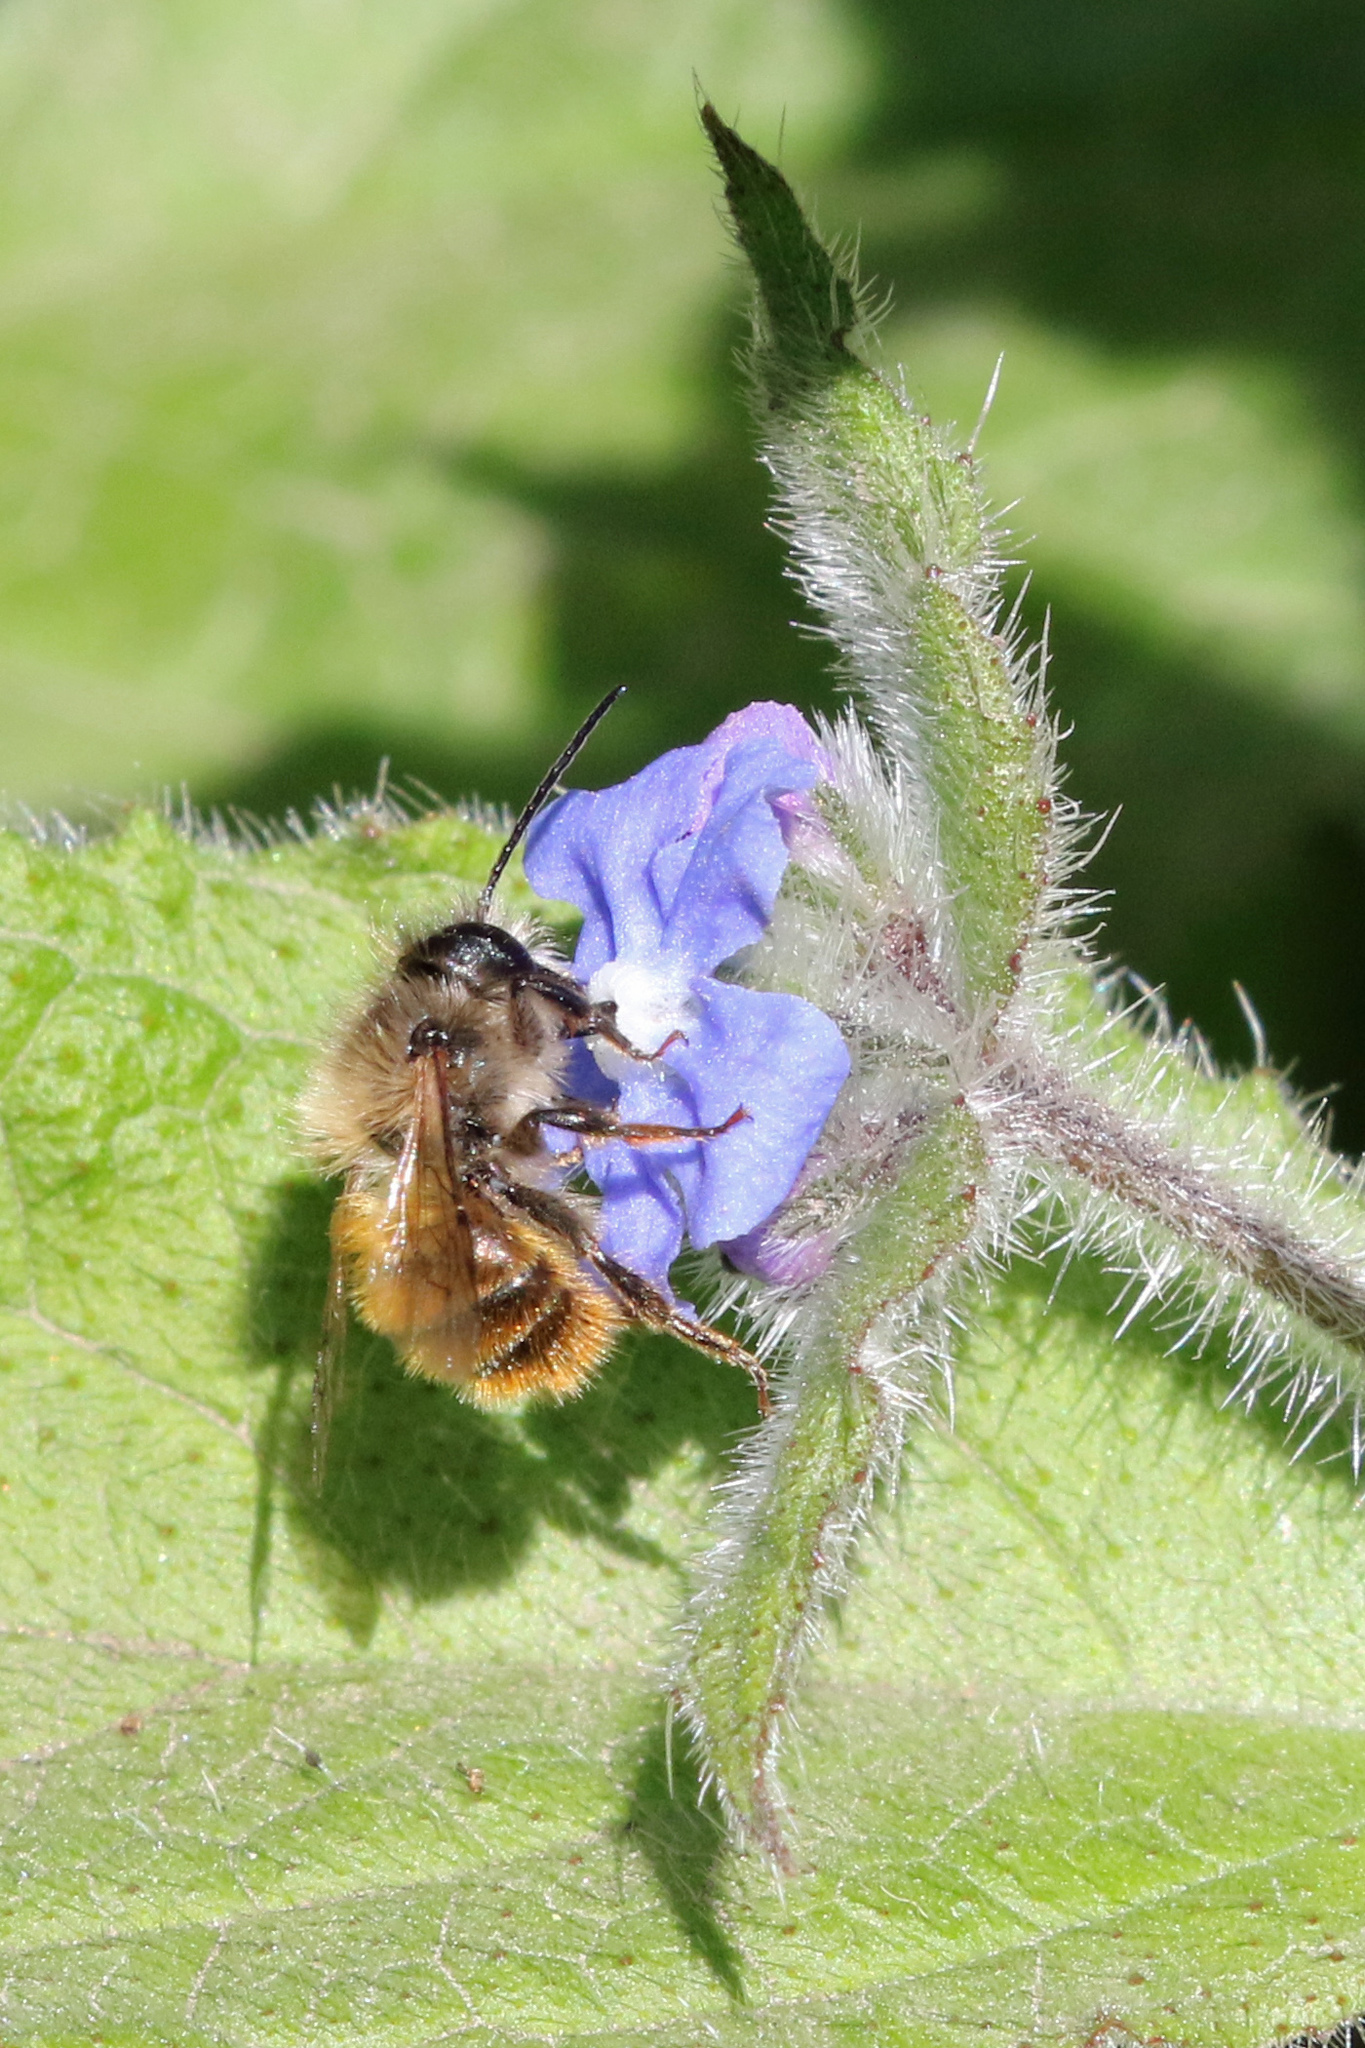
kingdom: Animalia
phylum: Arthropoda
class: Insecta
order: Hymenoptera
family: Megachilidae
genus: Osmia
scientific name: Osmia bicornis
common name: Red mason bee
